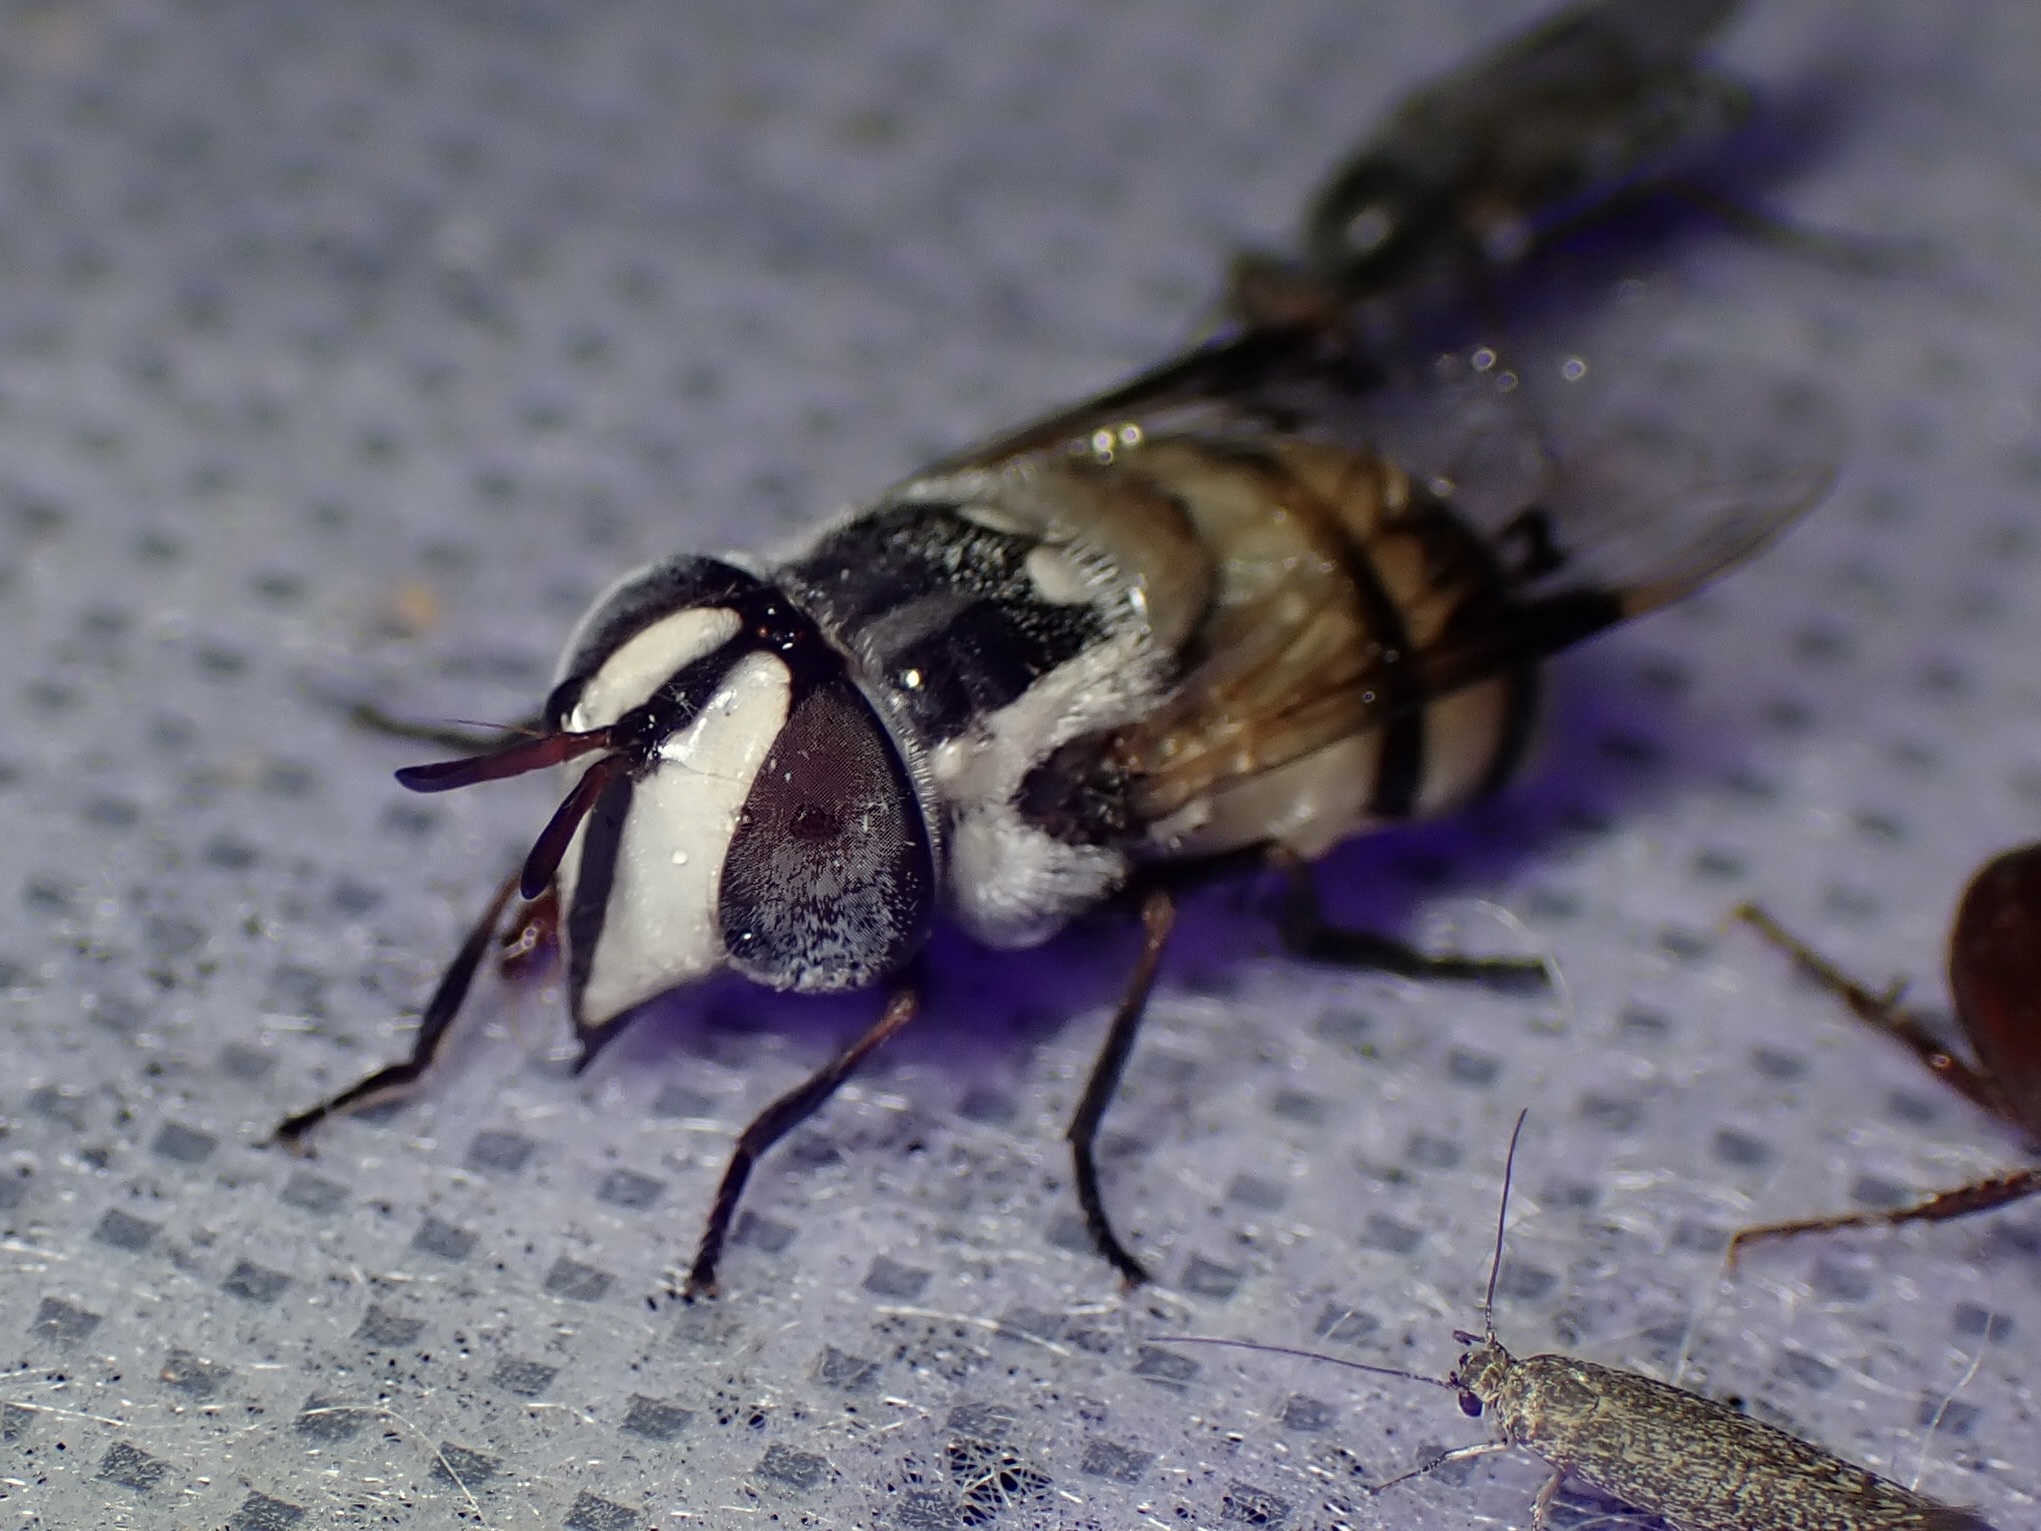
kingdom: Animalia
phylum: Arthropoda
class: Insecta
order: Diptera
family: Syrphidae
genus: Copestylum
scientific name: Copestylum fornax
